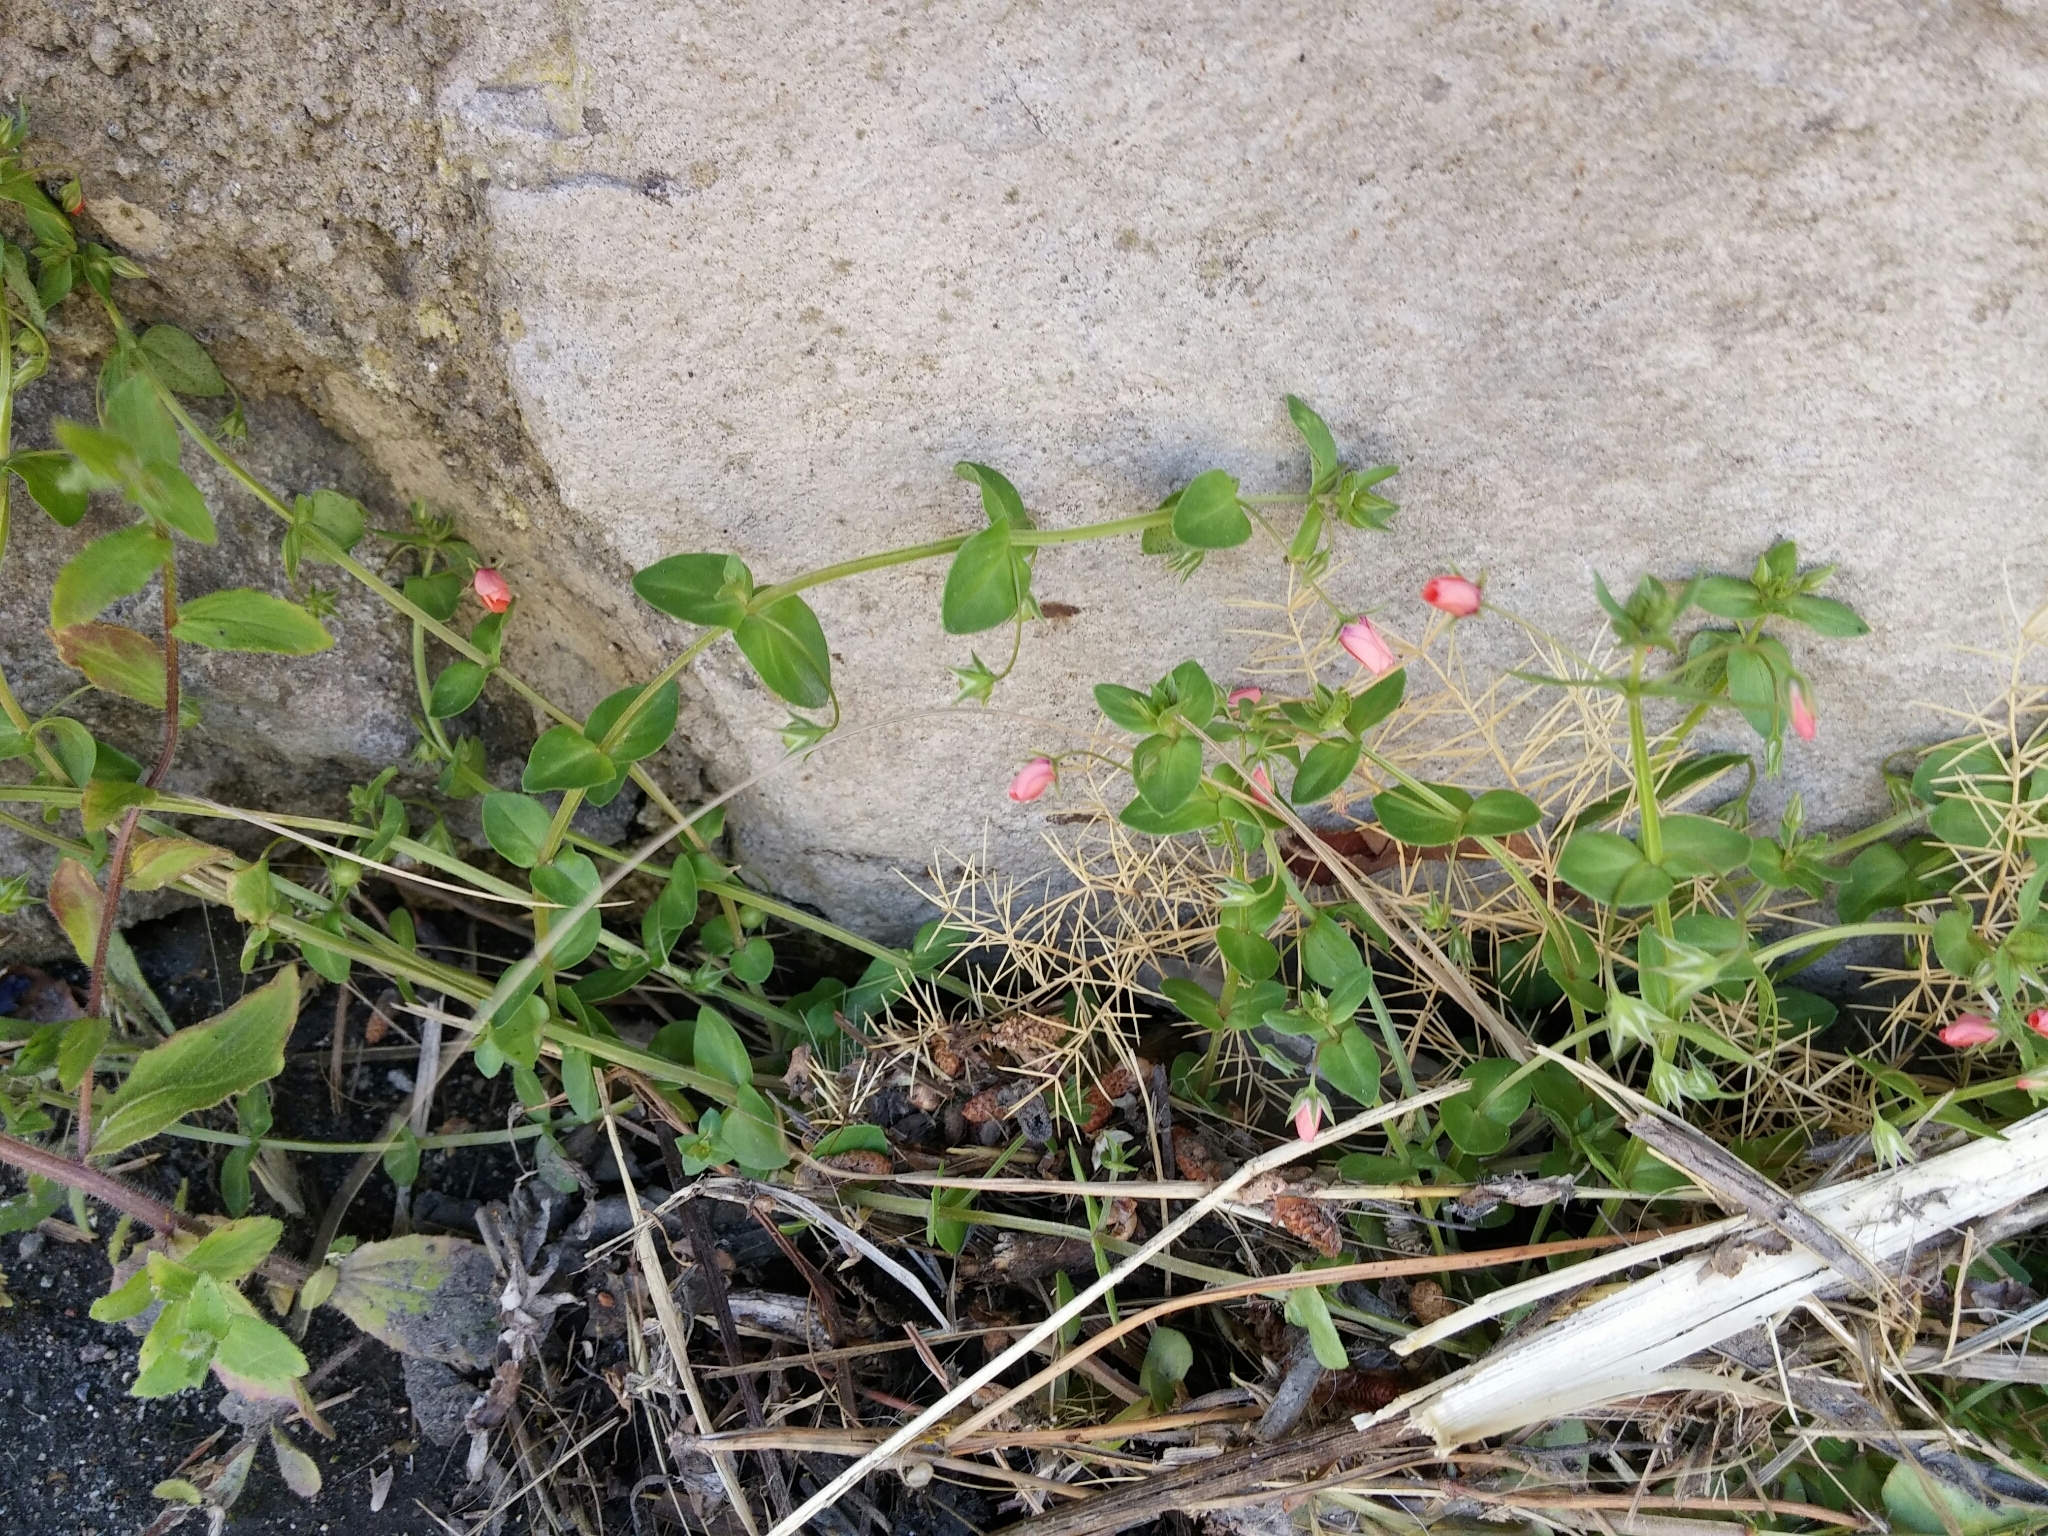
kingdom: Plantae
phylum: Tracheophyta
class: Magnoliopsida
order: Ericales
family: Primulaceae
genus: Lysimachia
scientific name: Lysimachia arvensis
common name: Scarlet pimpernel
